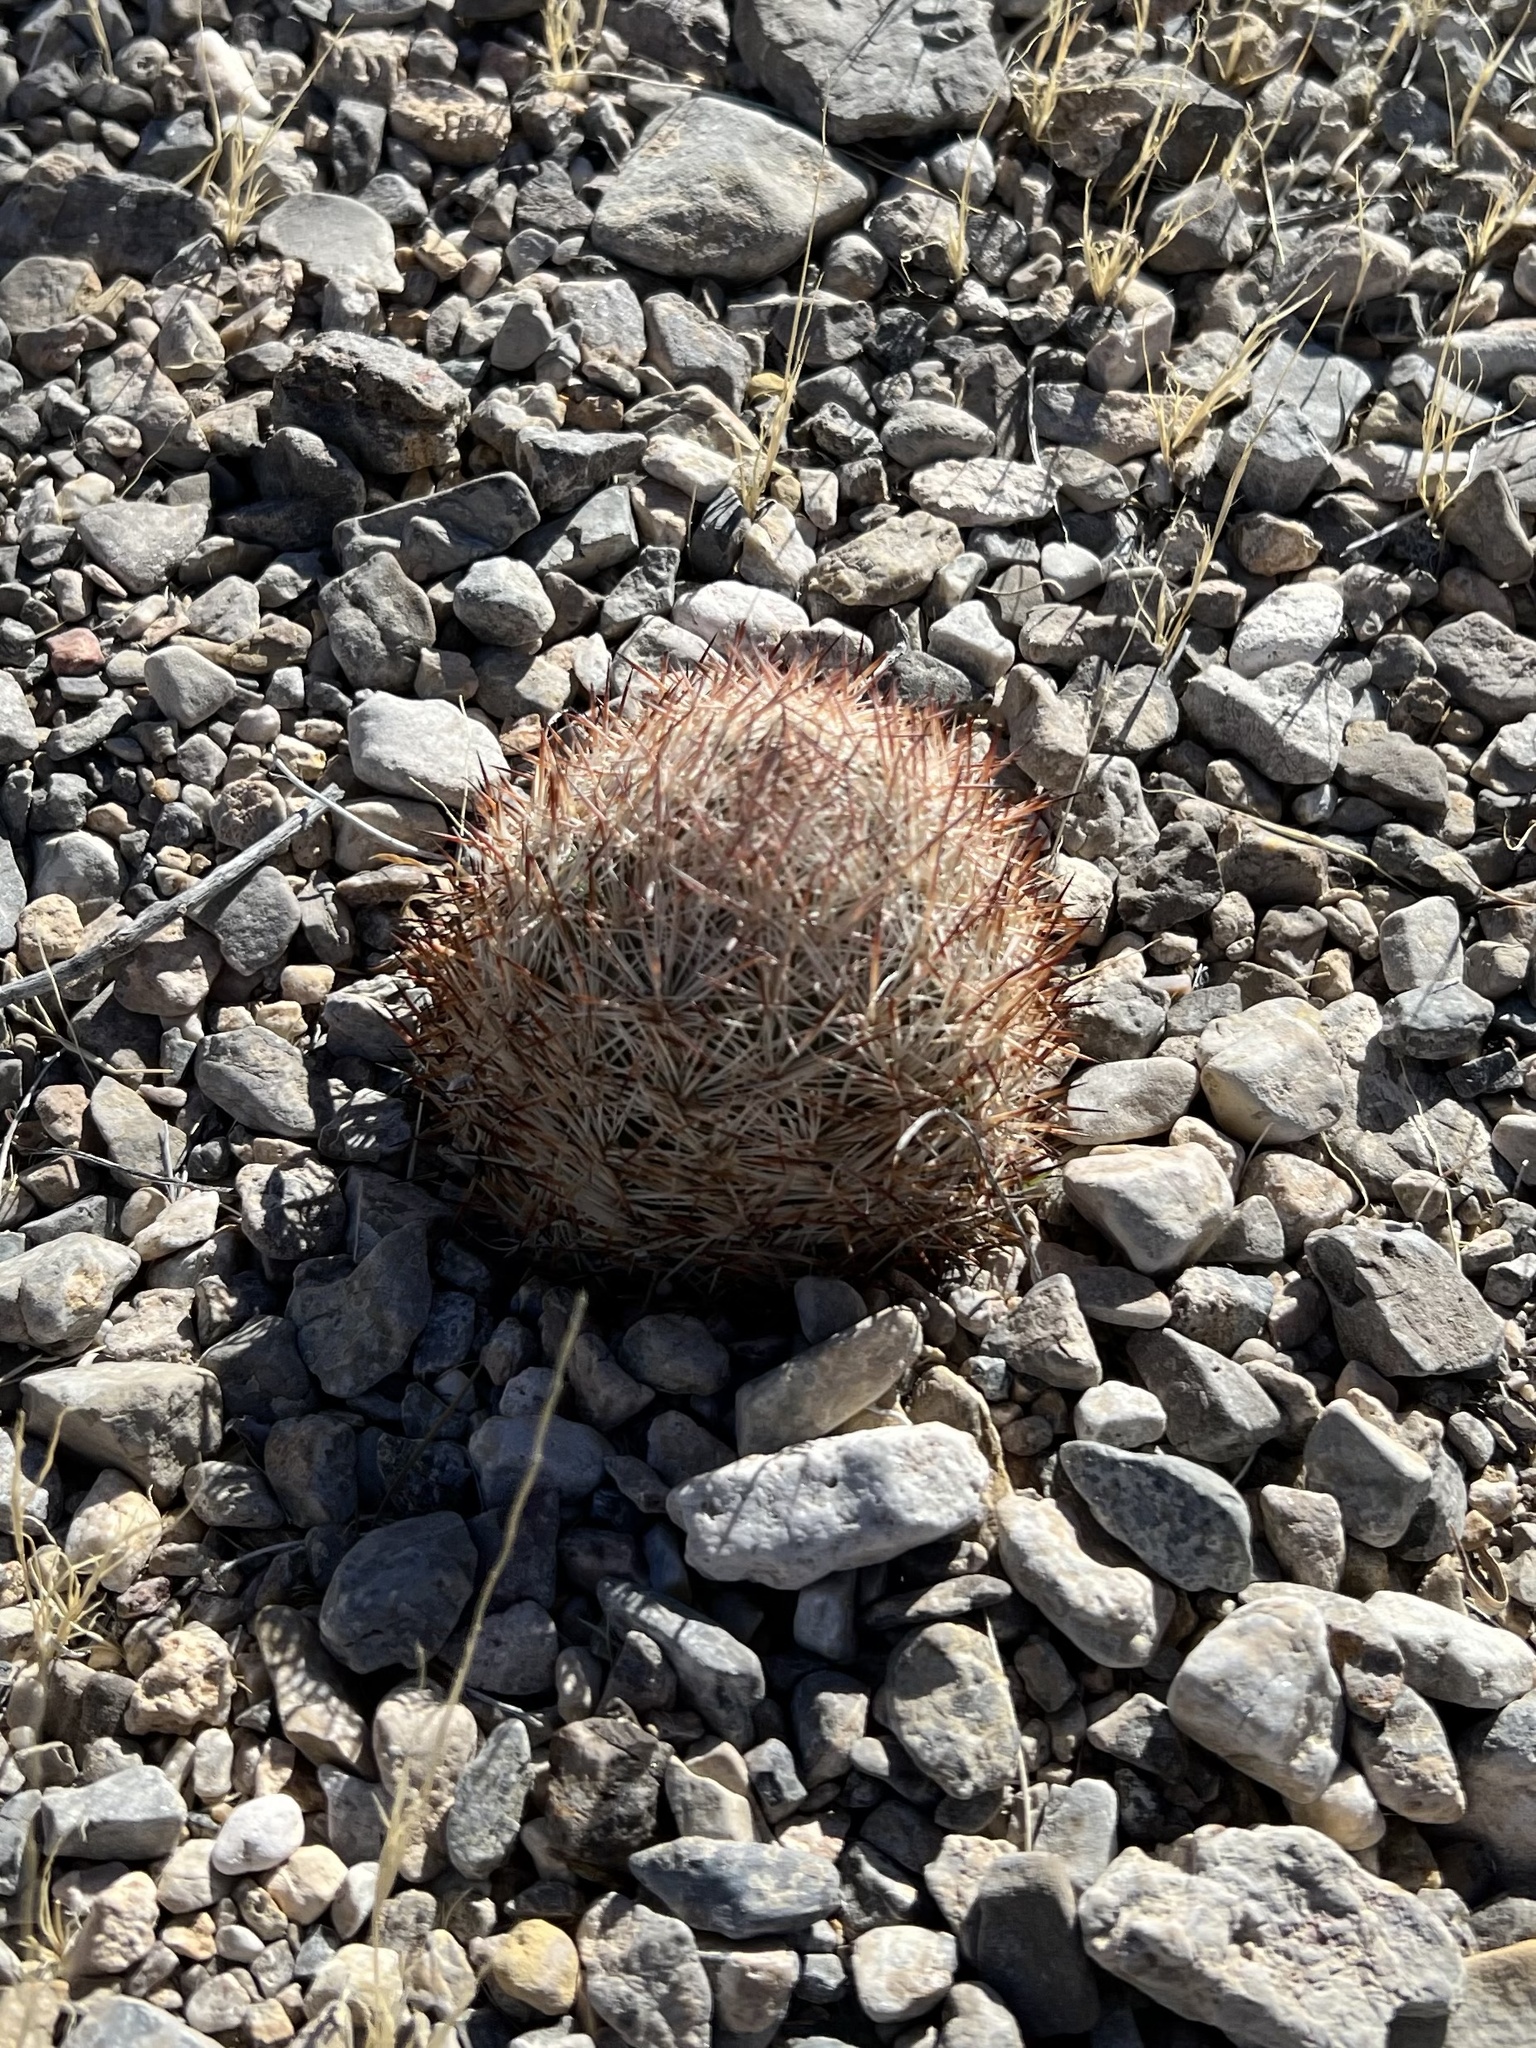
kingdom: Plantae
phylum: Tracheophyta
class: Magnoliopsida
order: Caryophyllales
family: Cactaceae
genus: Pelecyphora
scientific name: Pelecyphora dasyacantha
